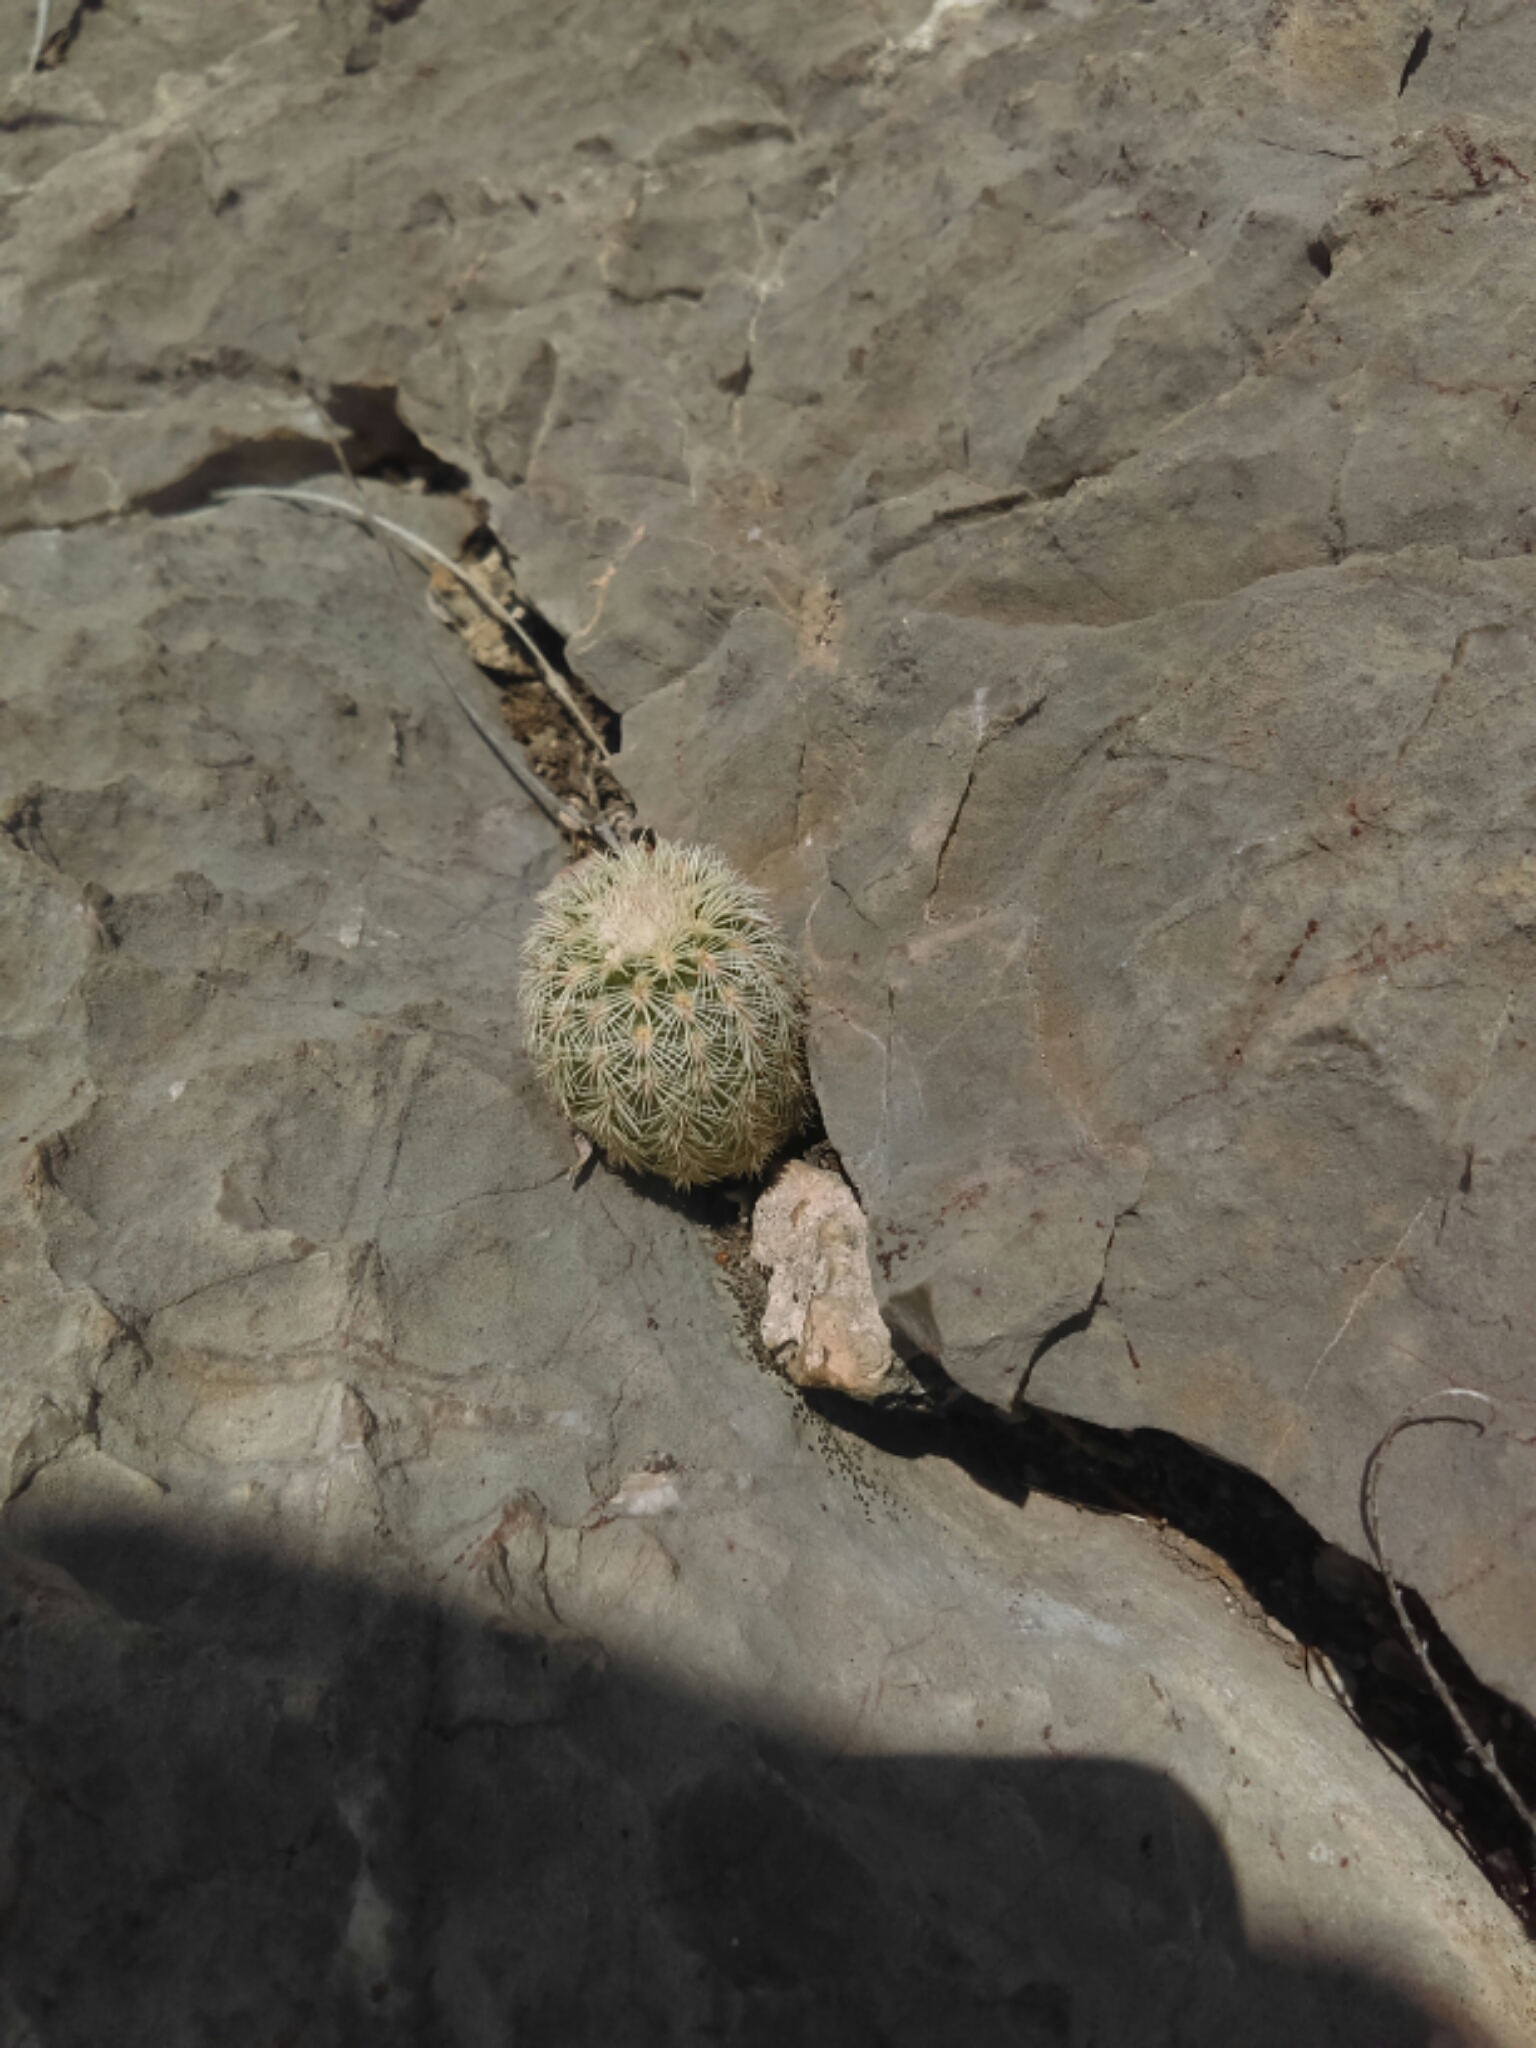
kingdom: Plantae
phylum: Tracheophyta
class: Magnoliopsida
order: Caryophyllales
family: Cactaceae
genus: Echinocereus
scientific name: Echinocereus pectinatus
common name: Rainbow cactus
